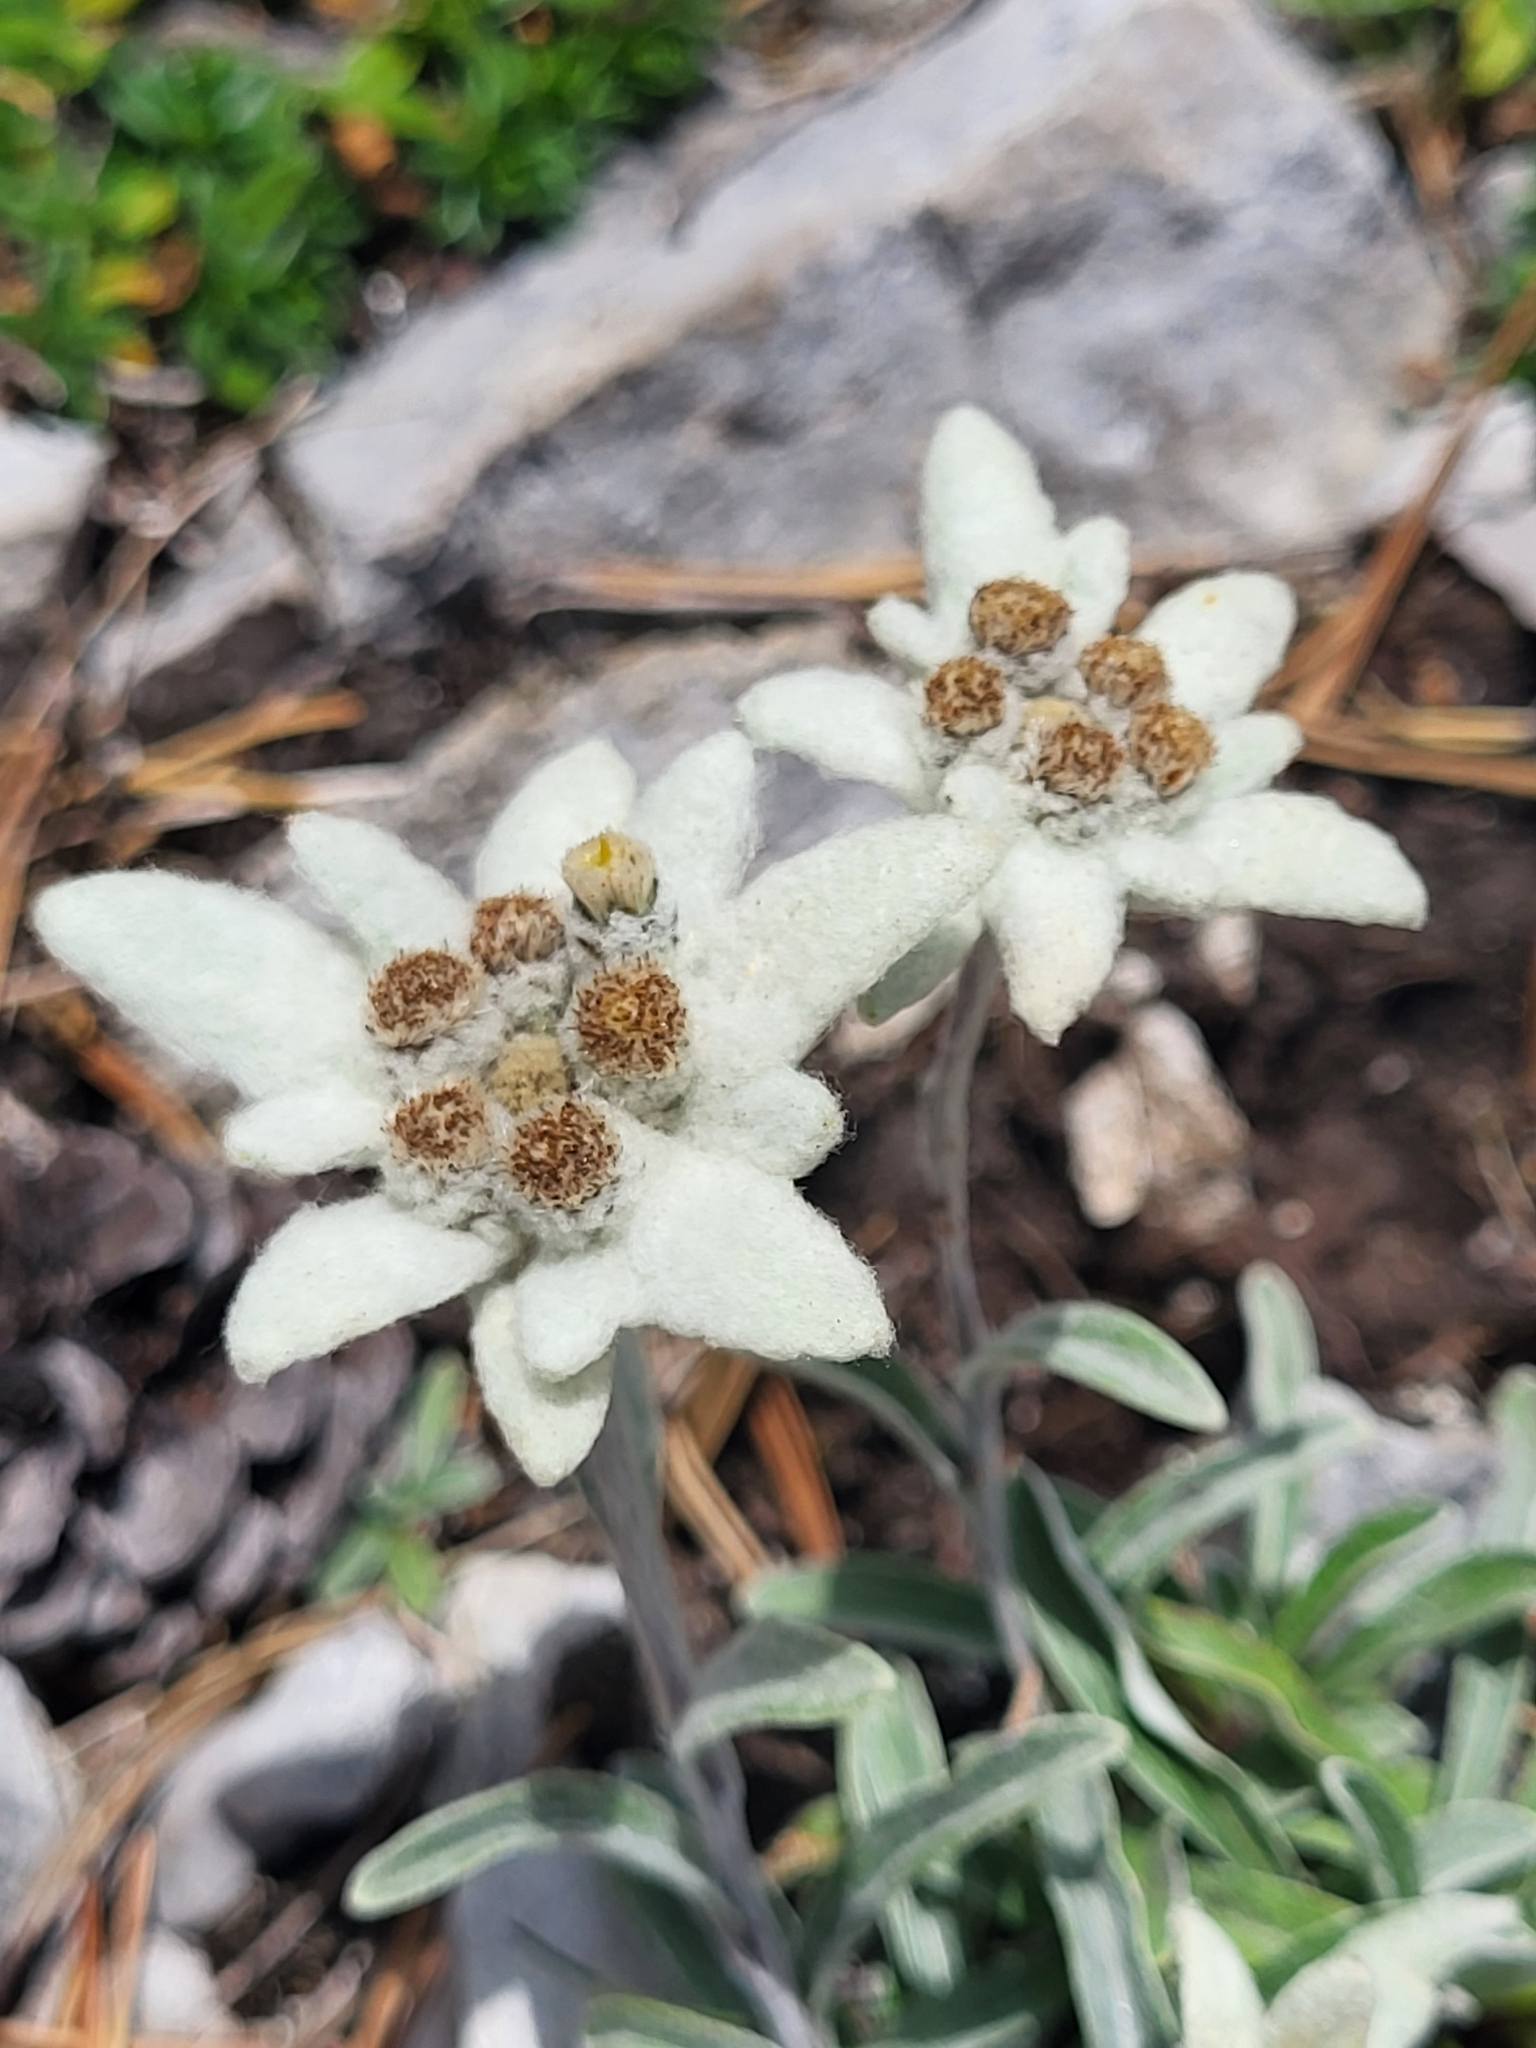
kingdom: Plantae
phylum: Tracheophyta
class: Magnoliopsida
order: Asterales
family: Asteraceae
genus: Leontopodium
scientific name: Leontopodium nivale
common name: Edelweiss
